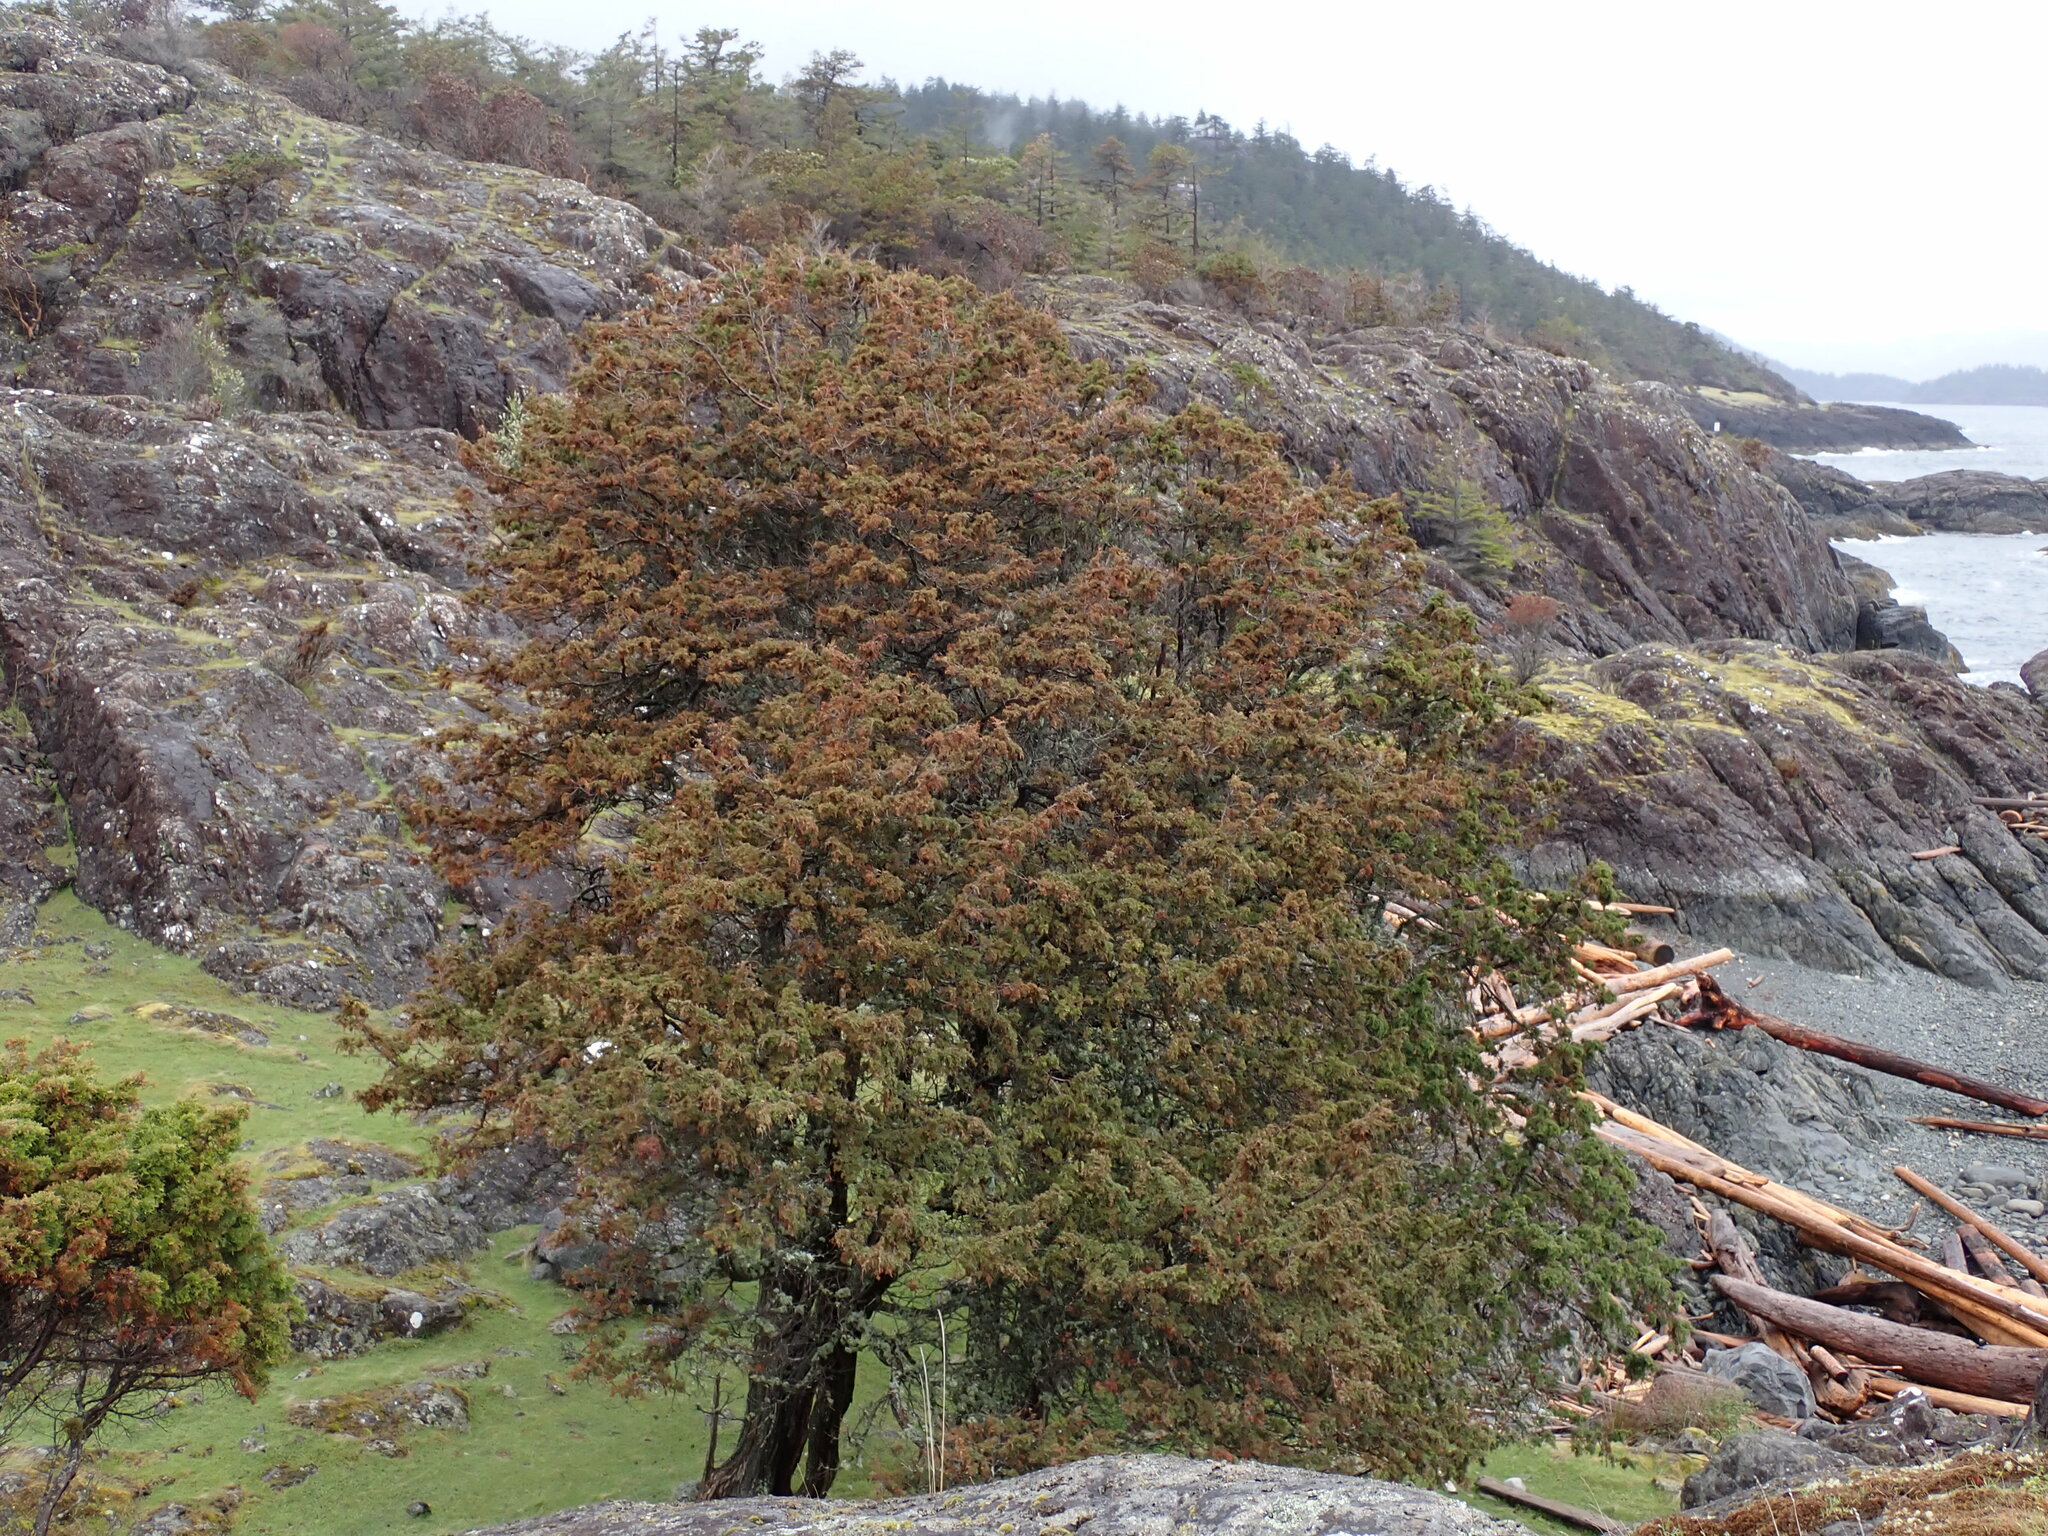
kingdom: Plantae
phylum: Tracheophyta
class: Pinopsida
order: Pinales
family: Cupressaceae
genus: Juniperus
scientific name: Juniperus scopulorum
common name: Rocky mountain juniper
